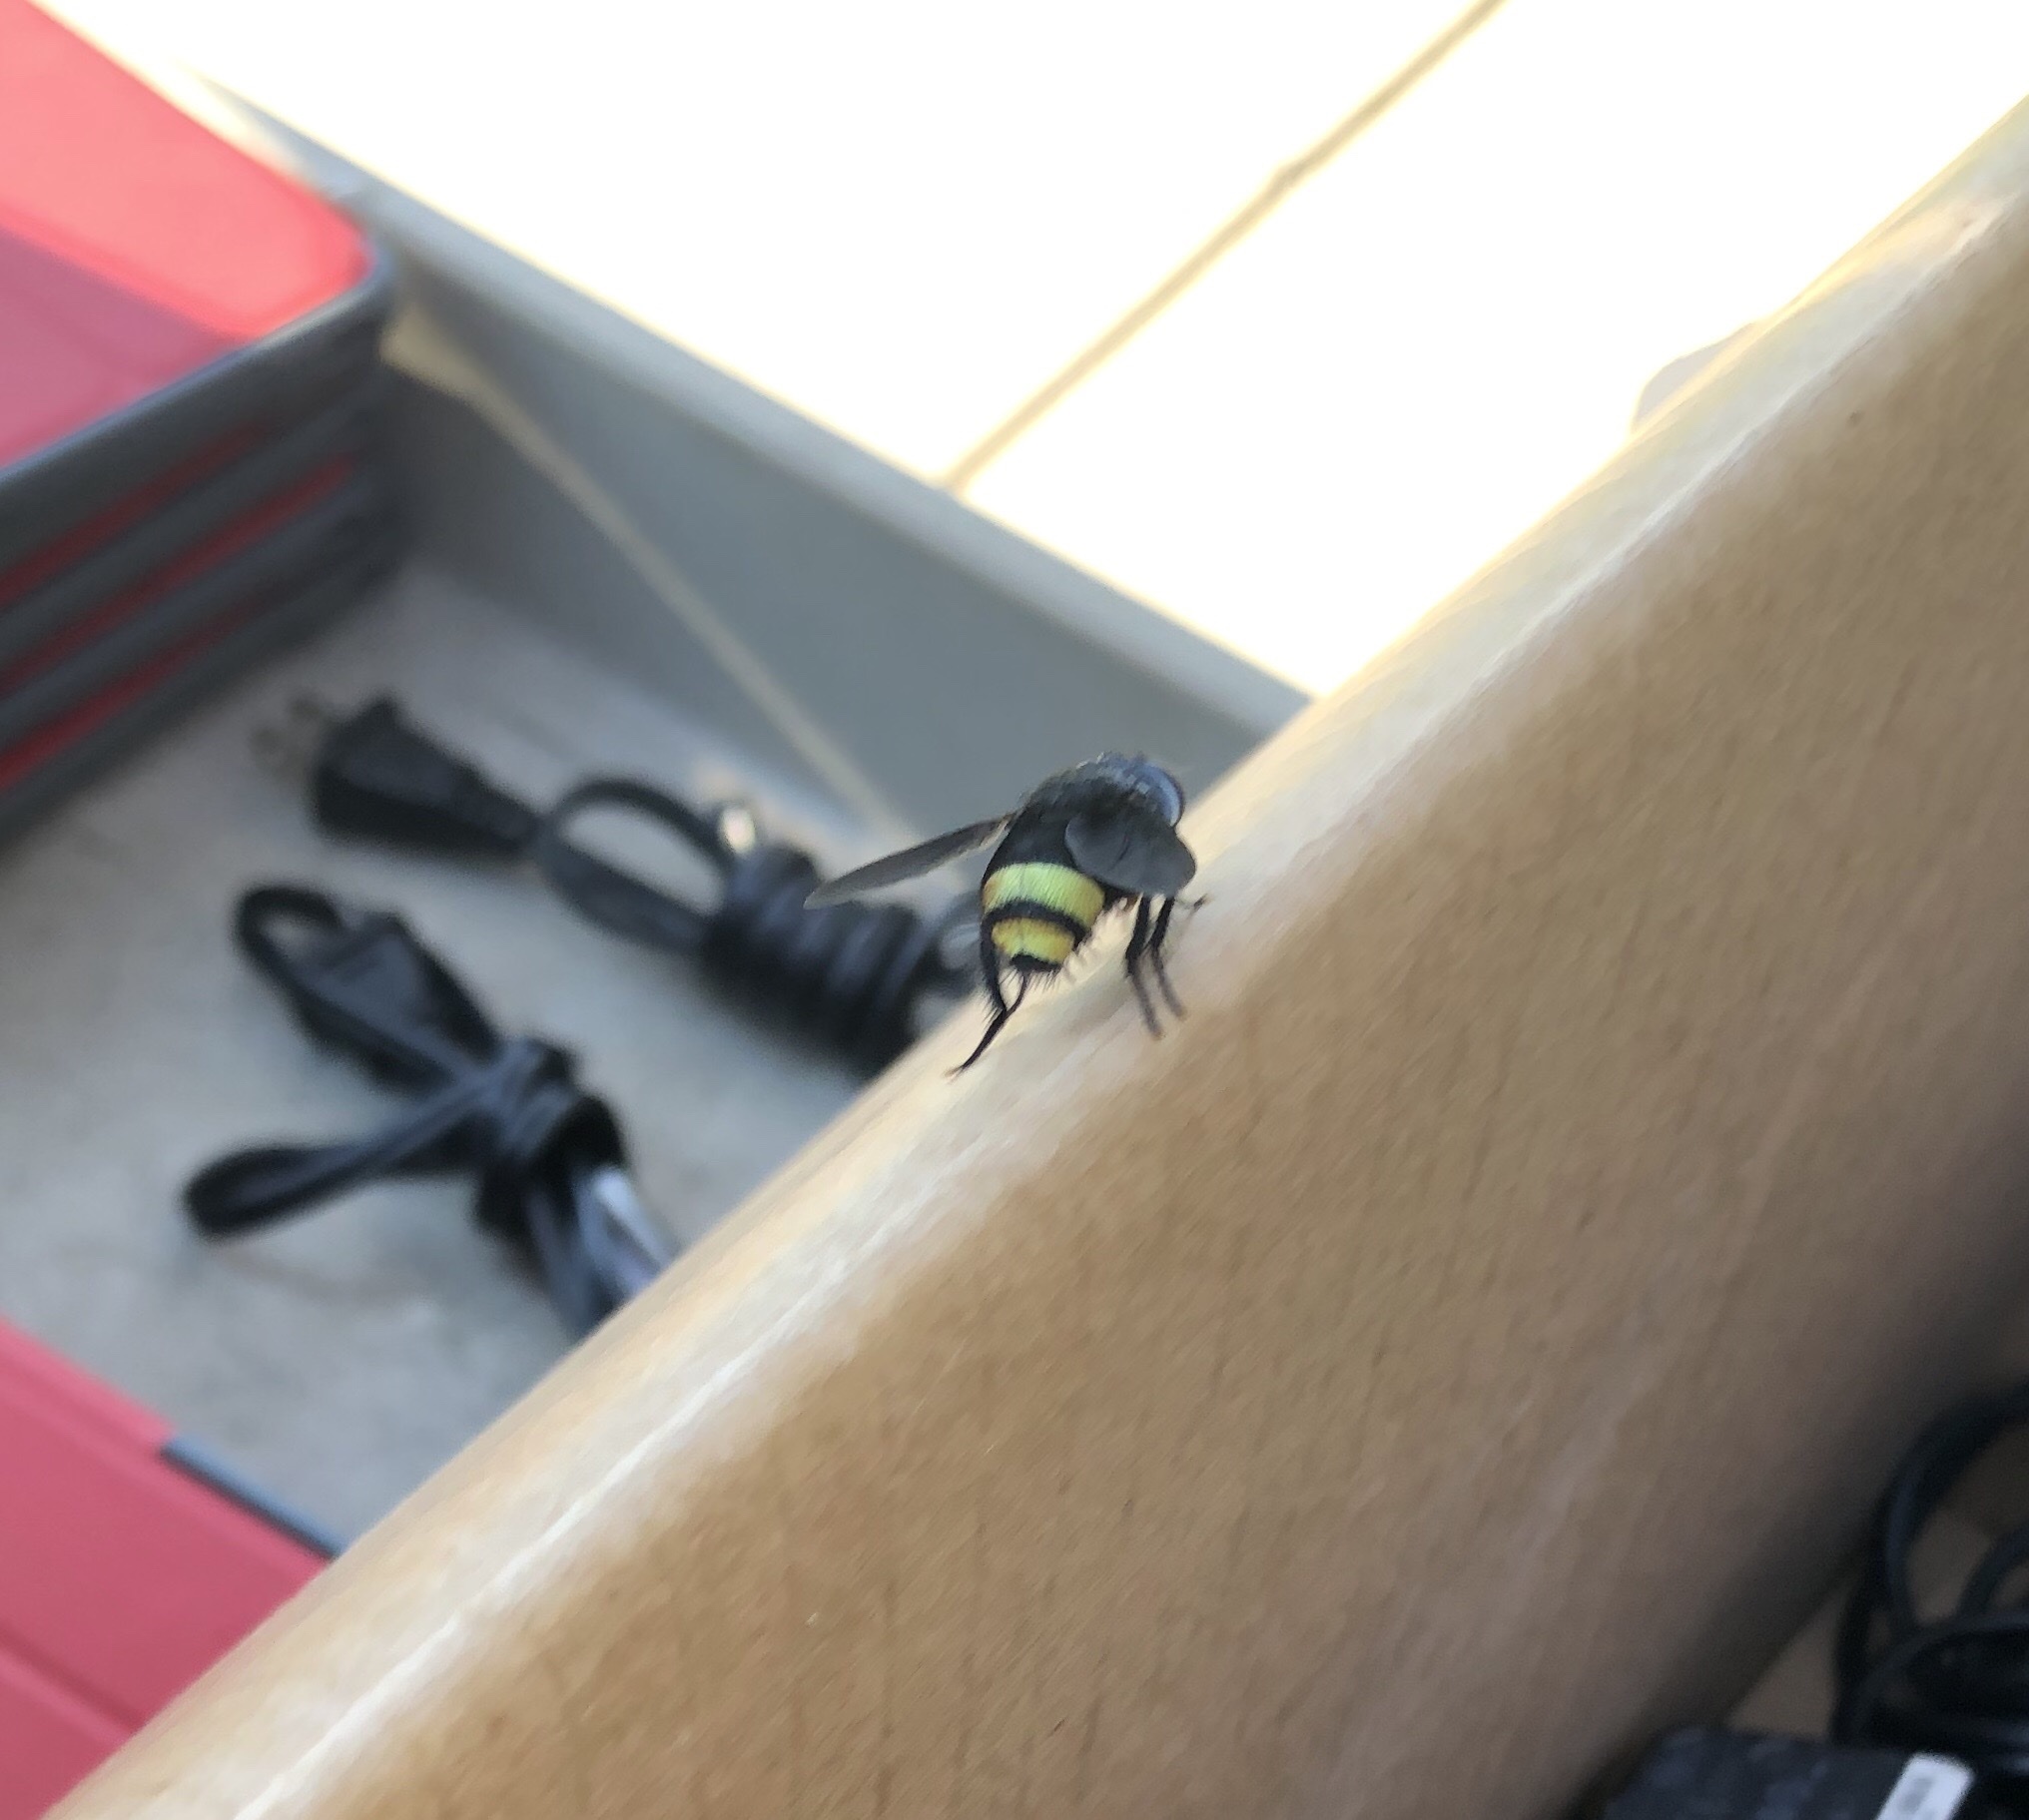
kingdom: Animalia
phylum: Arthropoda
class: Insecta
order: Diptera
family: Tachinidae
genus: Belvosia
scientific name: Belvosia borealis
